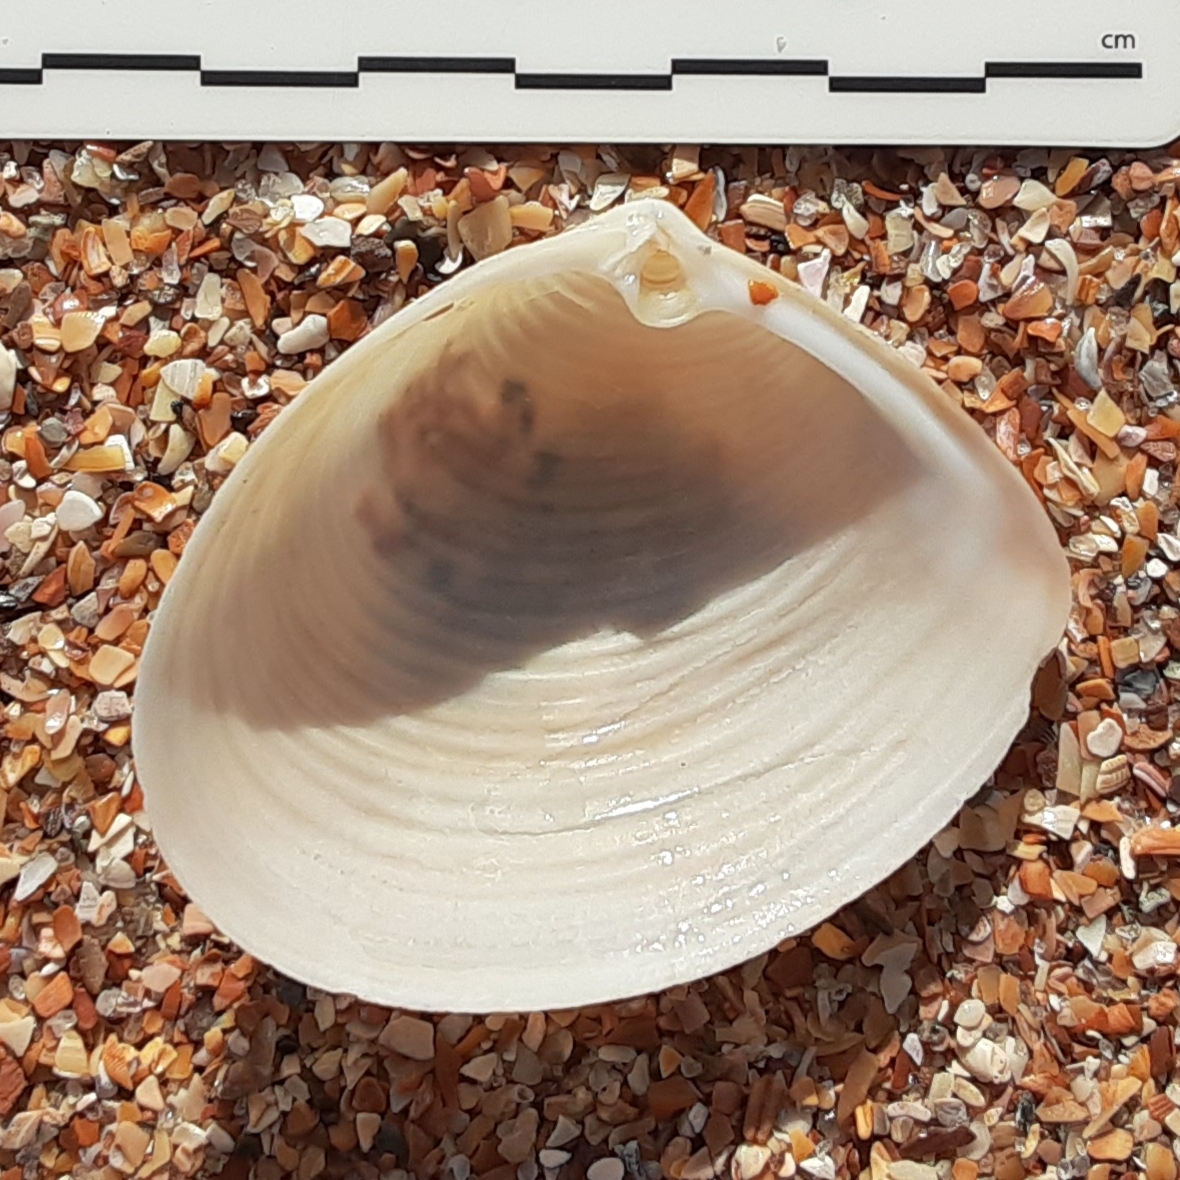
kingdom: Animalia
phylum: Mollusca
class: Bivalvia
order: Venerida
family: Anatinellidae
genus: Raeta
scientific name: Raeta plicatella
